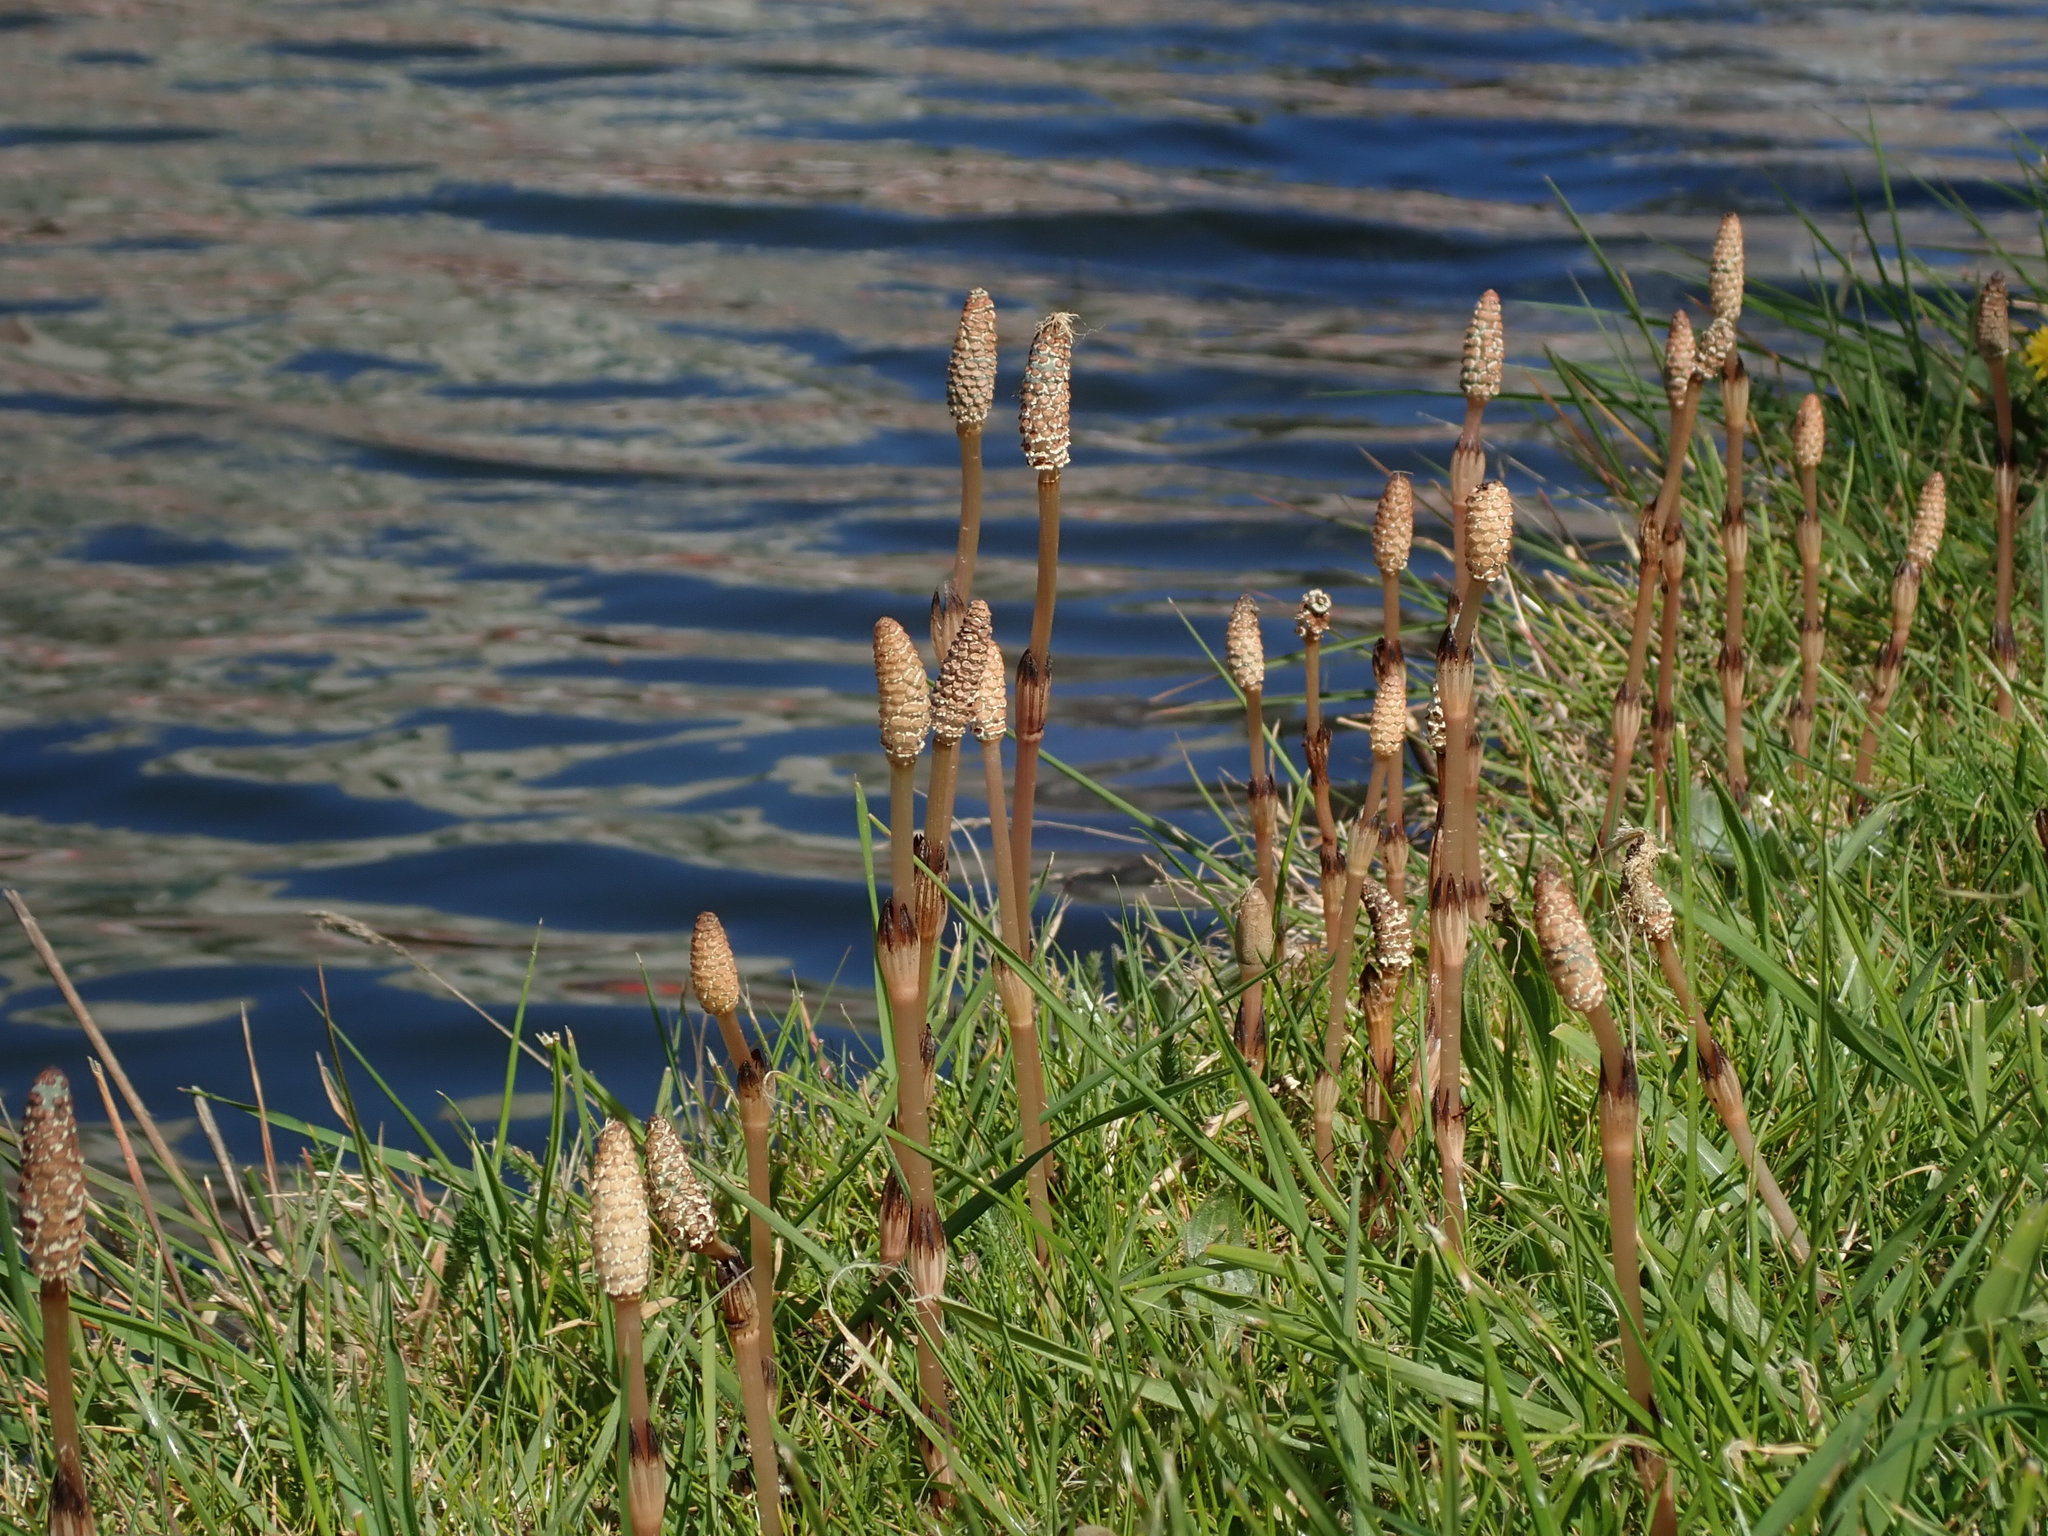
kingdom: Plantae
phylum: Tracheophyta
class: Polypodiopsida
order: Equisetales
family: Equisetaceae
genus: Equisetum
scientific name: Equisetum arvense
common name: Field horsetail
